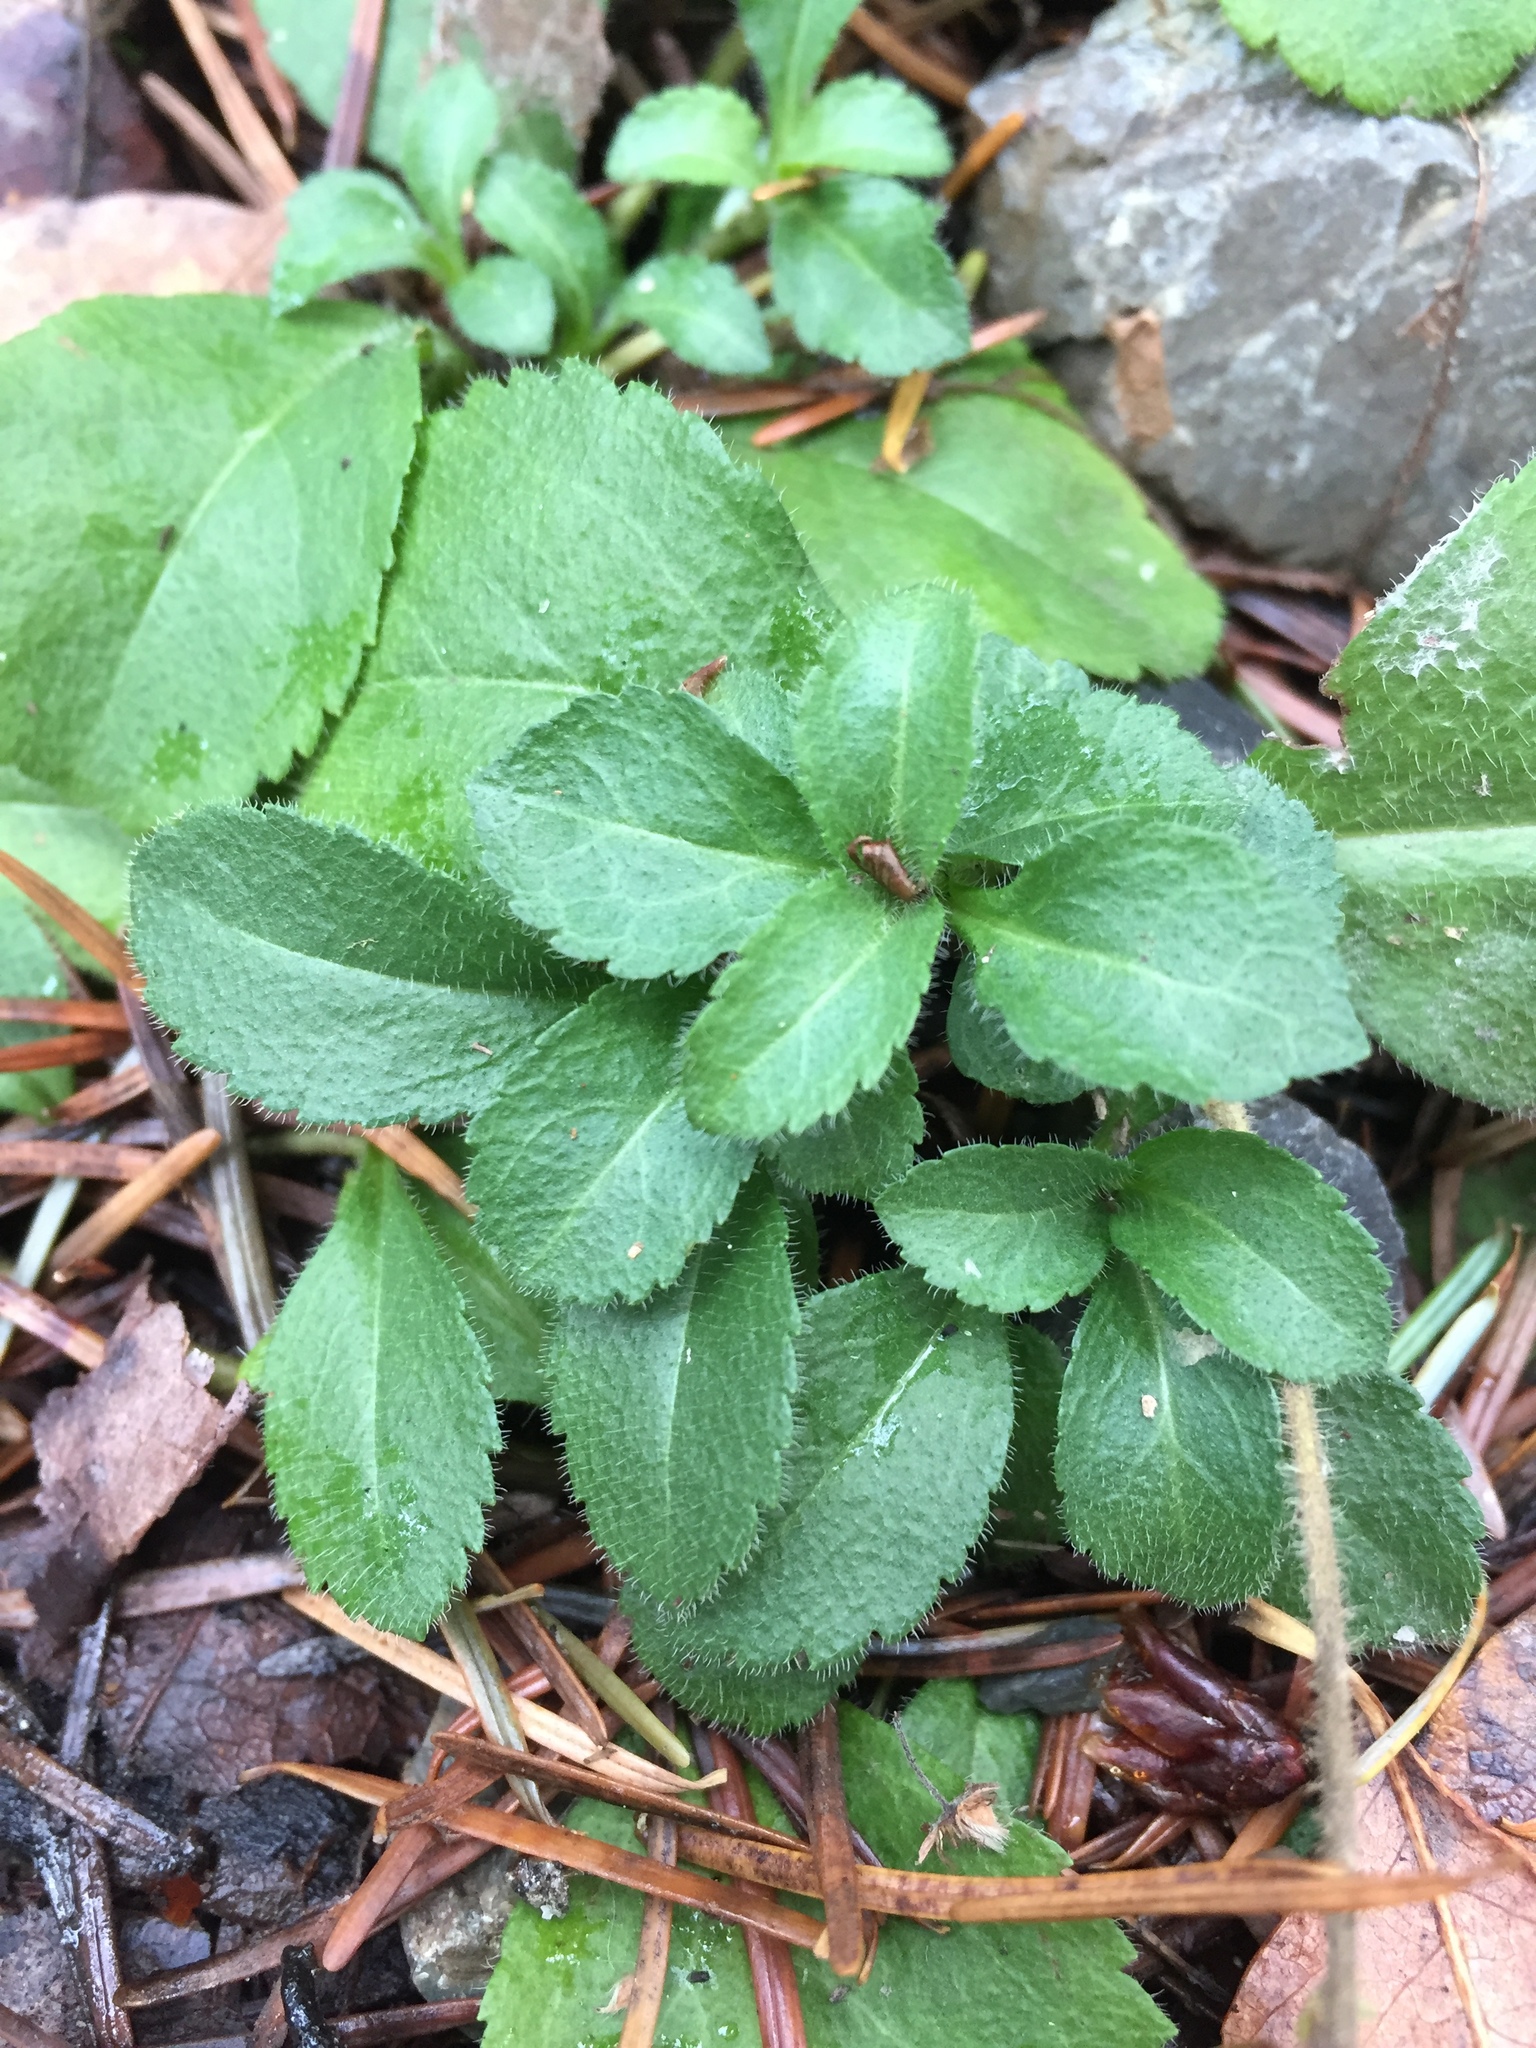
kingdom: Plantae
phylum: Tracheophyta
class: Magnoliopsida
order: Lamiales
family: Plantaginaceae
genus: Veronica
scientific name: Veronica officinalis
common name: Common speedwell
